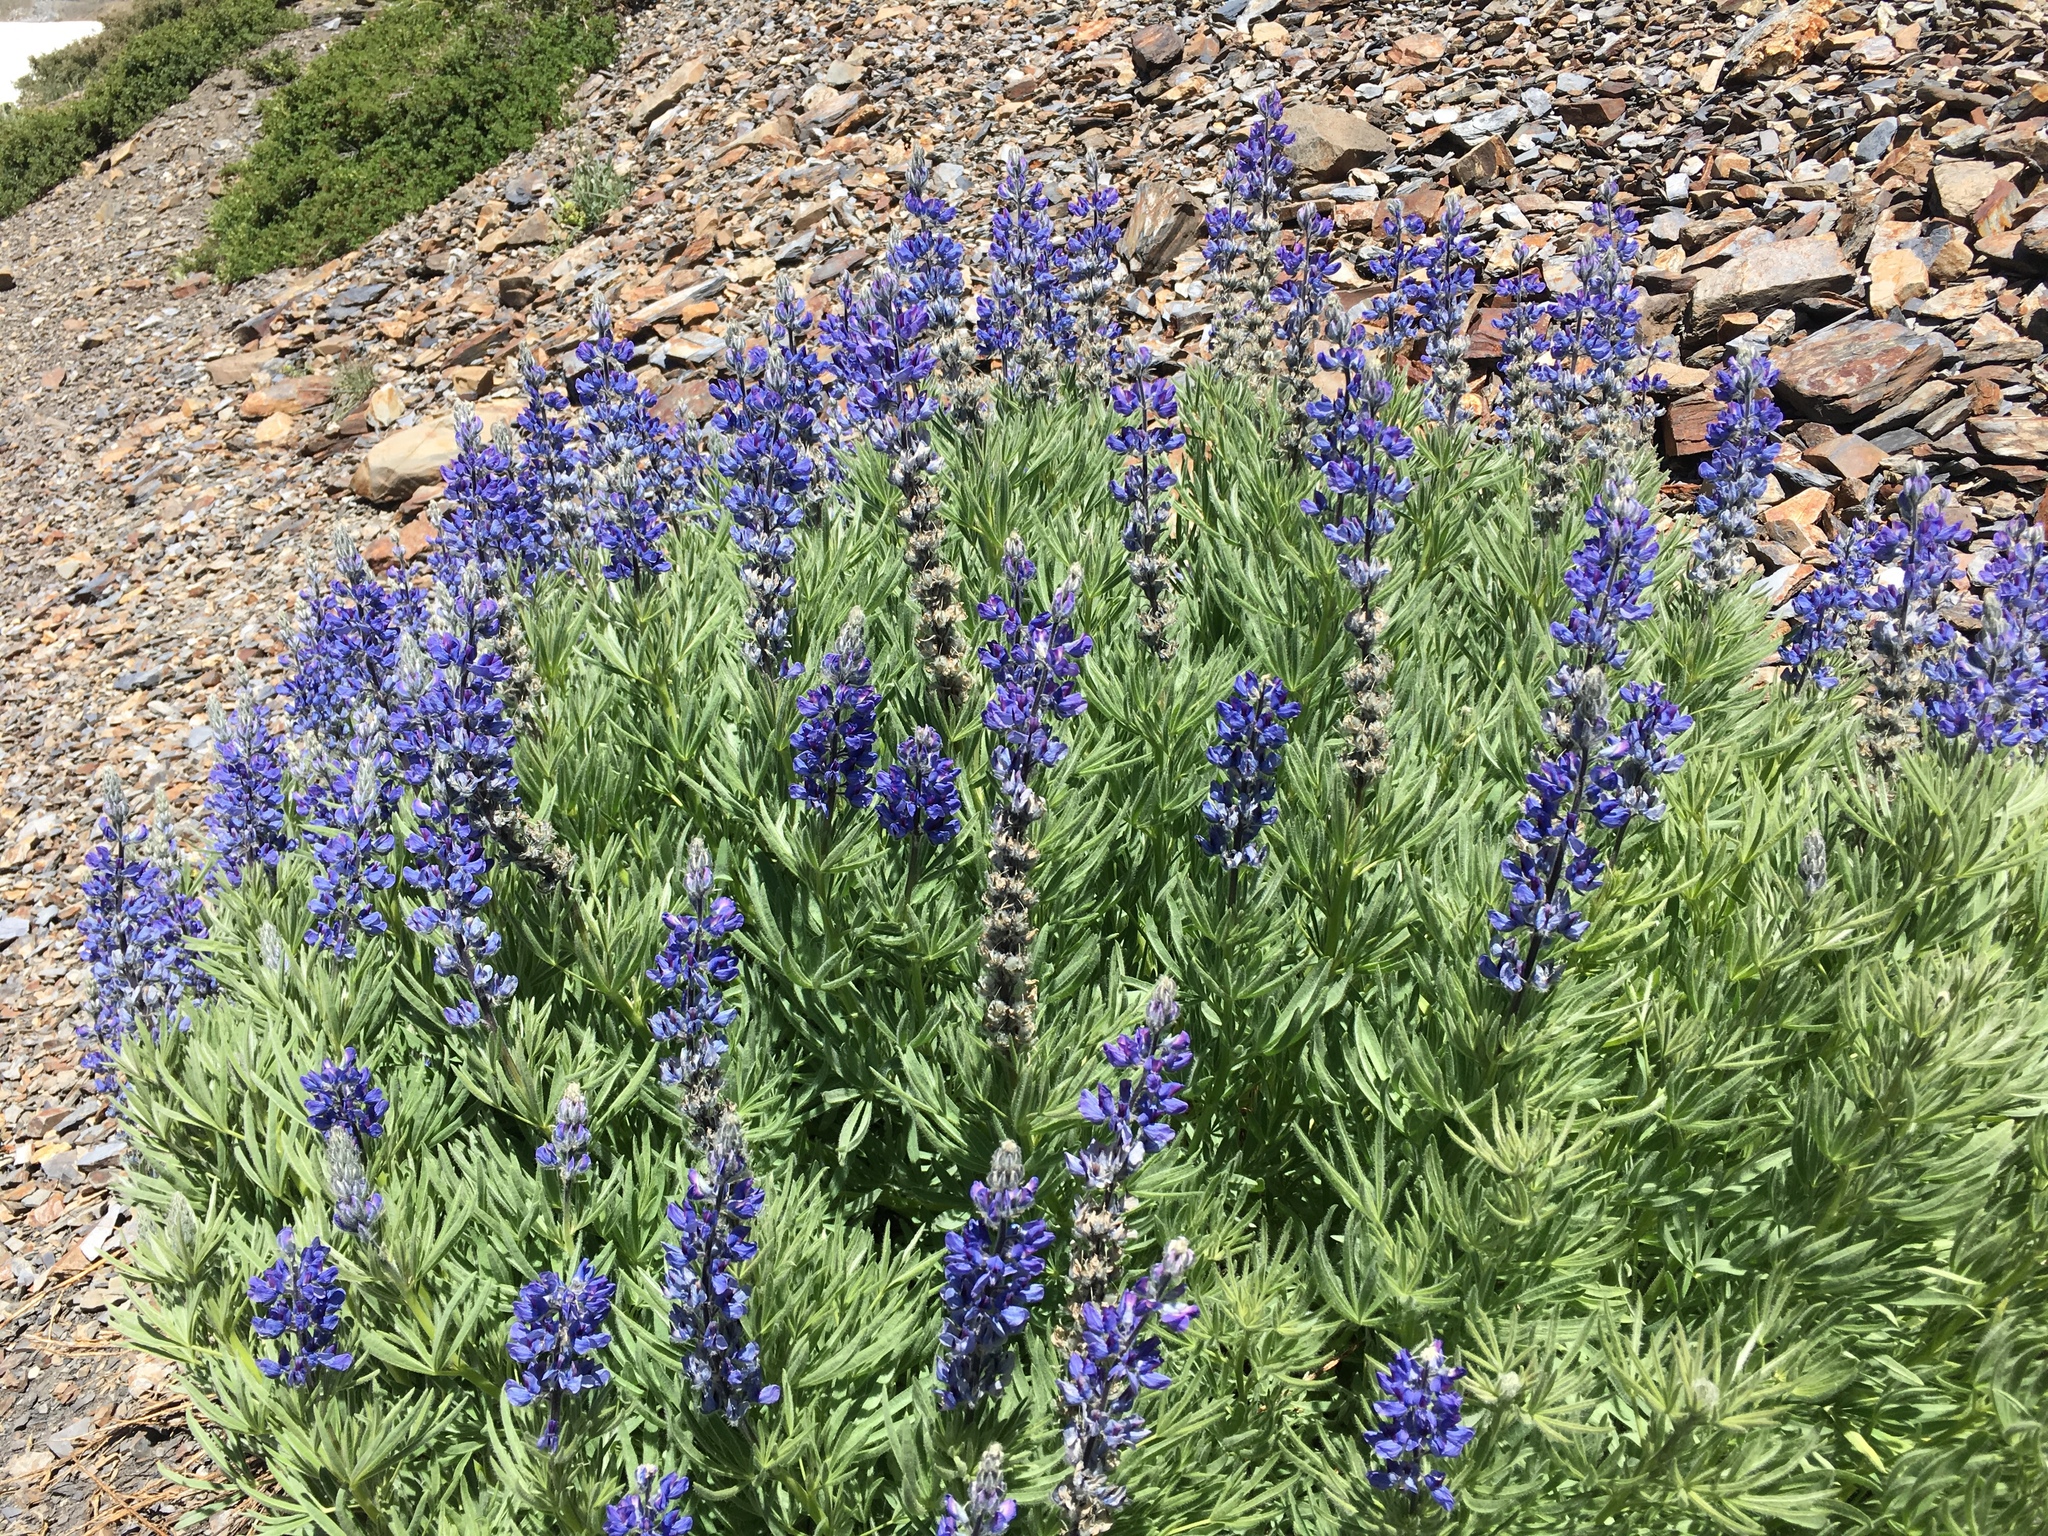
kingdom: Plantae
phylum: Tracheophyta
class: Magnoliopsida
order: Fabales
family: Fabaceae
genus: Lupinus
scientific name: Lupinus covillei
